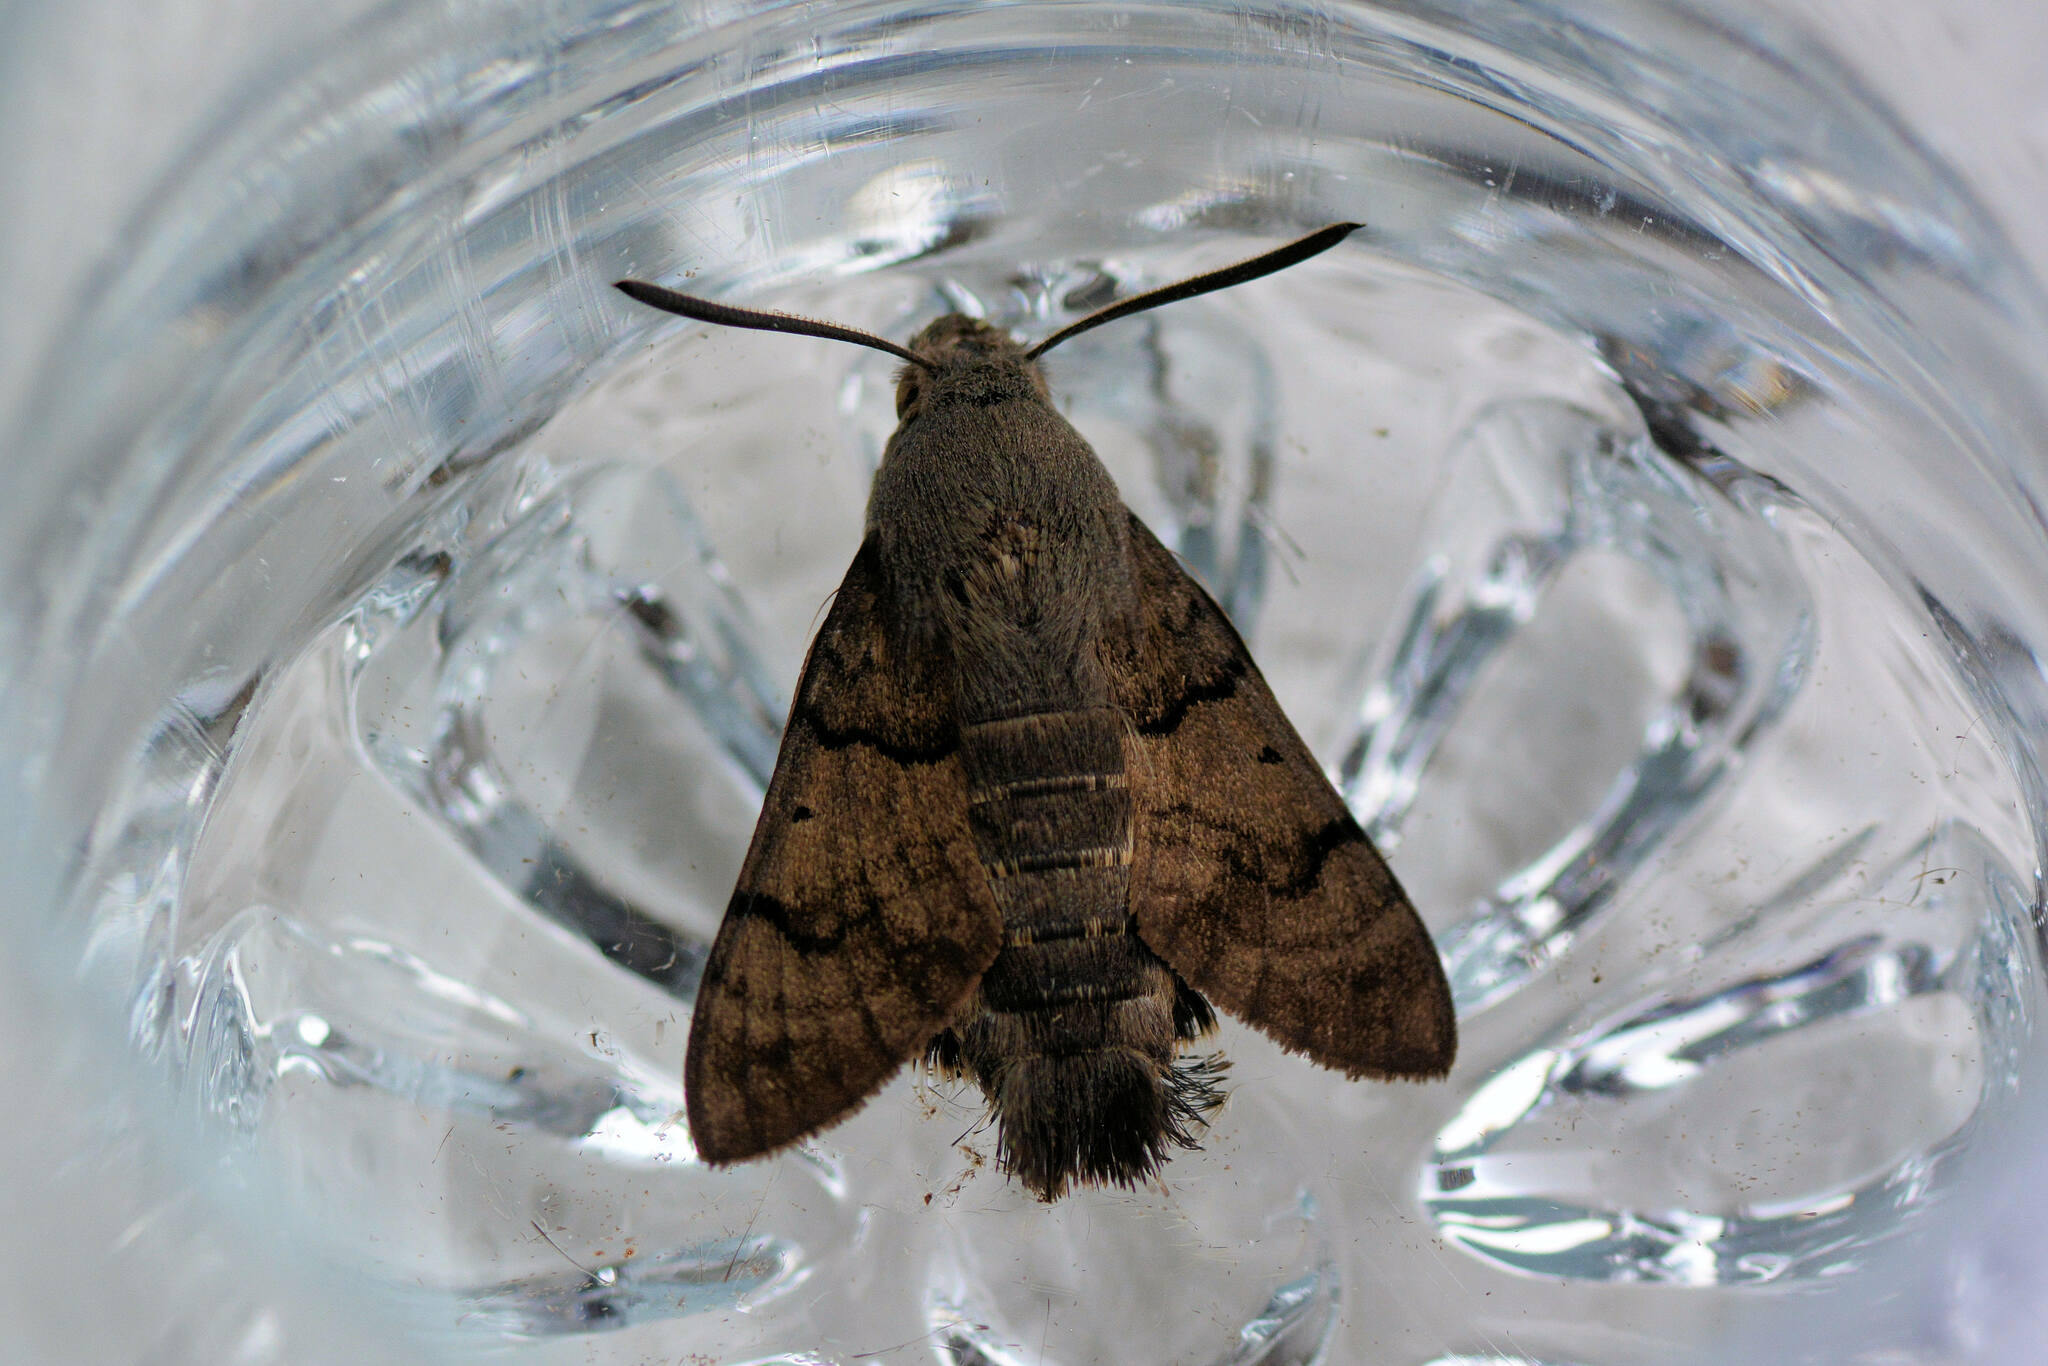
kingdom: Animalia
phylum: Arthropoda
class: Insecta
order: Lepidoptera
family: Sphingidae
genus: Macroglossum
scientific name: Macroglossum stellatarum
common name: Humming-bird hawk-moth
